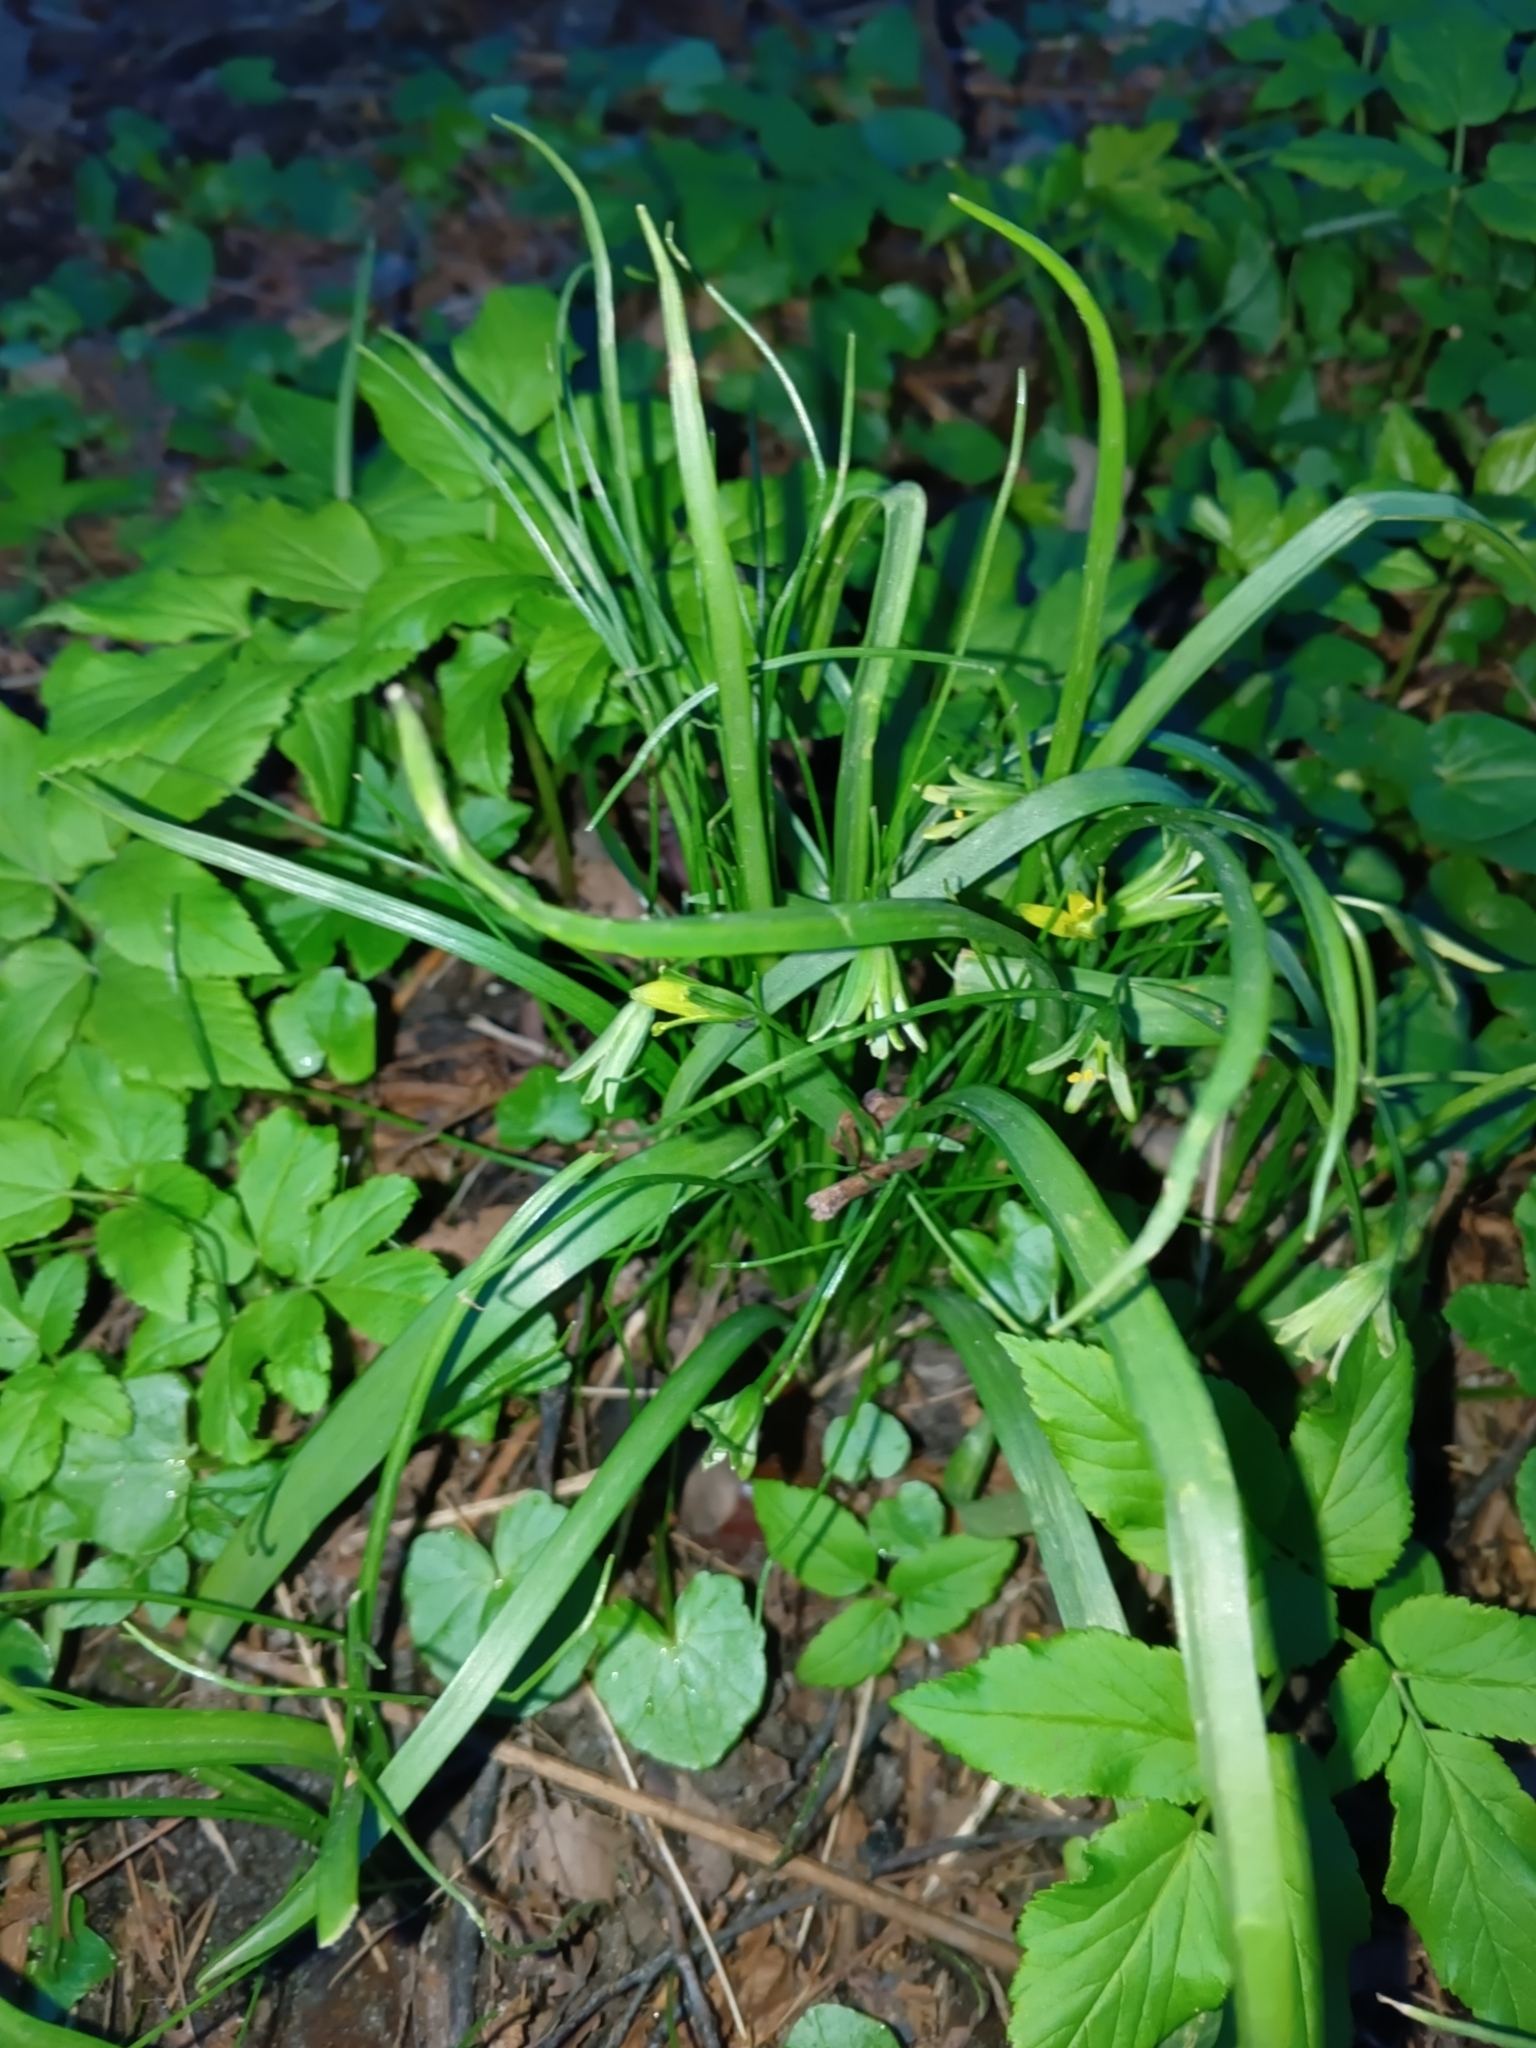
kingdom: Plantae
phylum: Tracheophyta
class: Liliopsida
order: Liliales
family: Liliaceae
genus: Gagea
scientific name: Gagea lutea
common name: Yellow star-of-bethlehem
